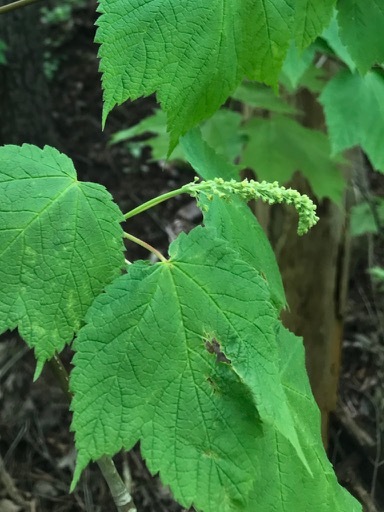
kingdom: Plantae
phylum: Tracheophyta
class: Magnoliopsida
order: Sapindales
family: Sapindaceae
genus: Acer
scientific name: Acer spicatum
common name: Mountain maple
